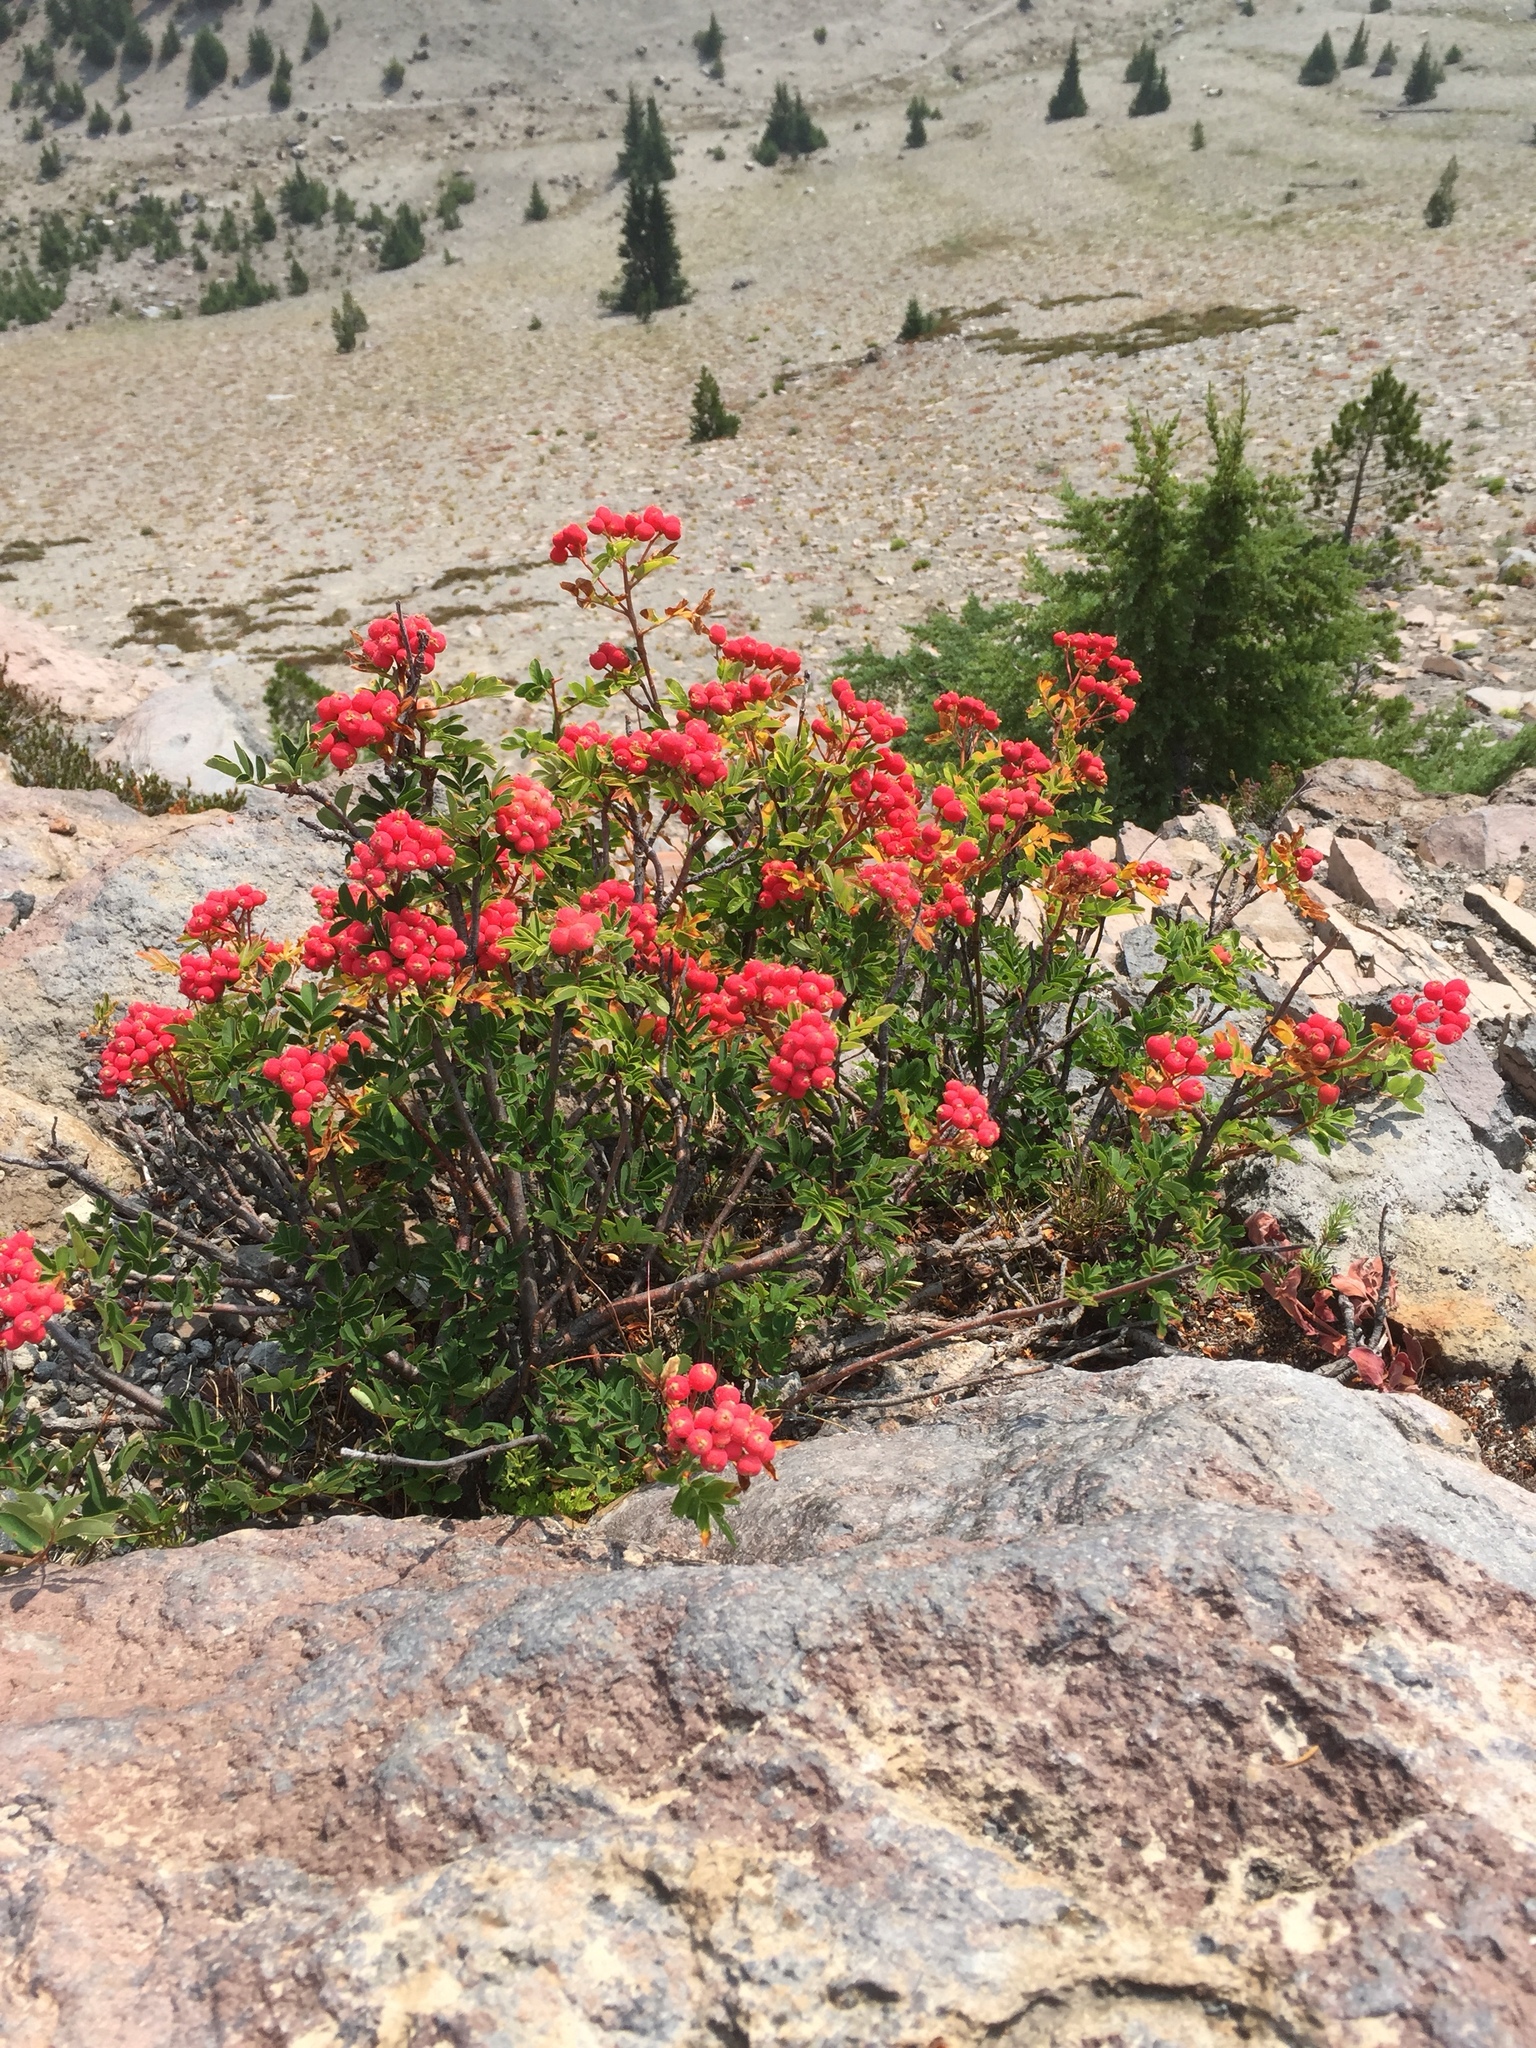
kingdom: Plantae
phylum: Tracheophyta
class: Magnoliopsida
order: Rosales
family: Rosaceae
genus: Sorbus
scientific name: Sorbus occidentalis
